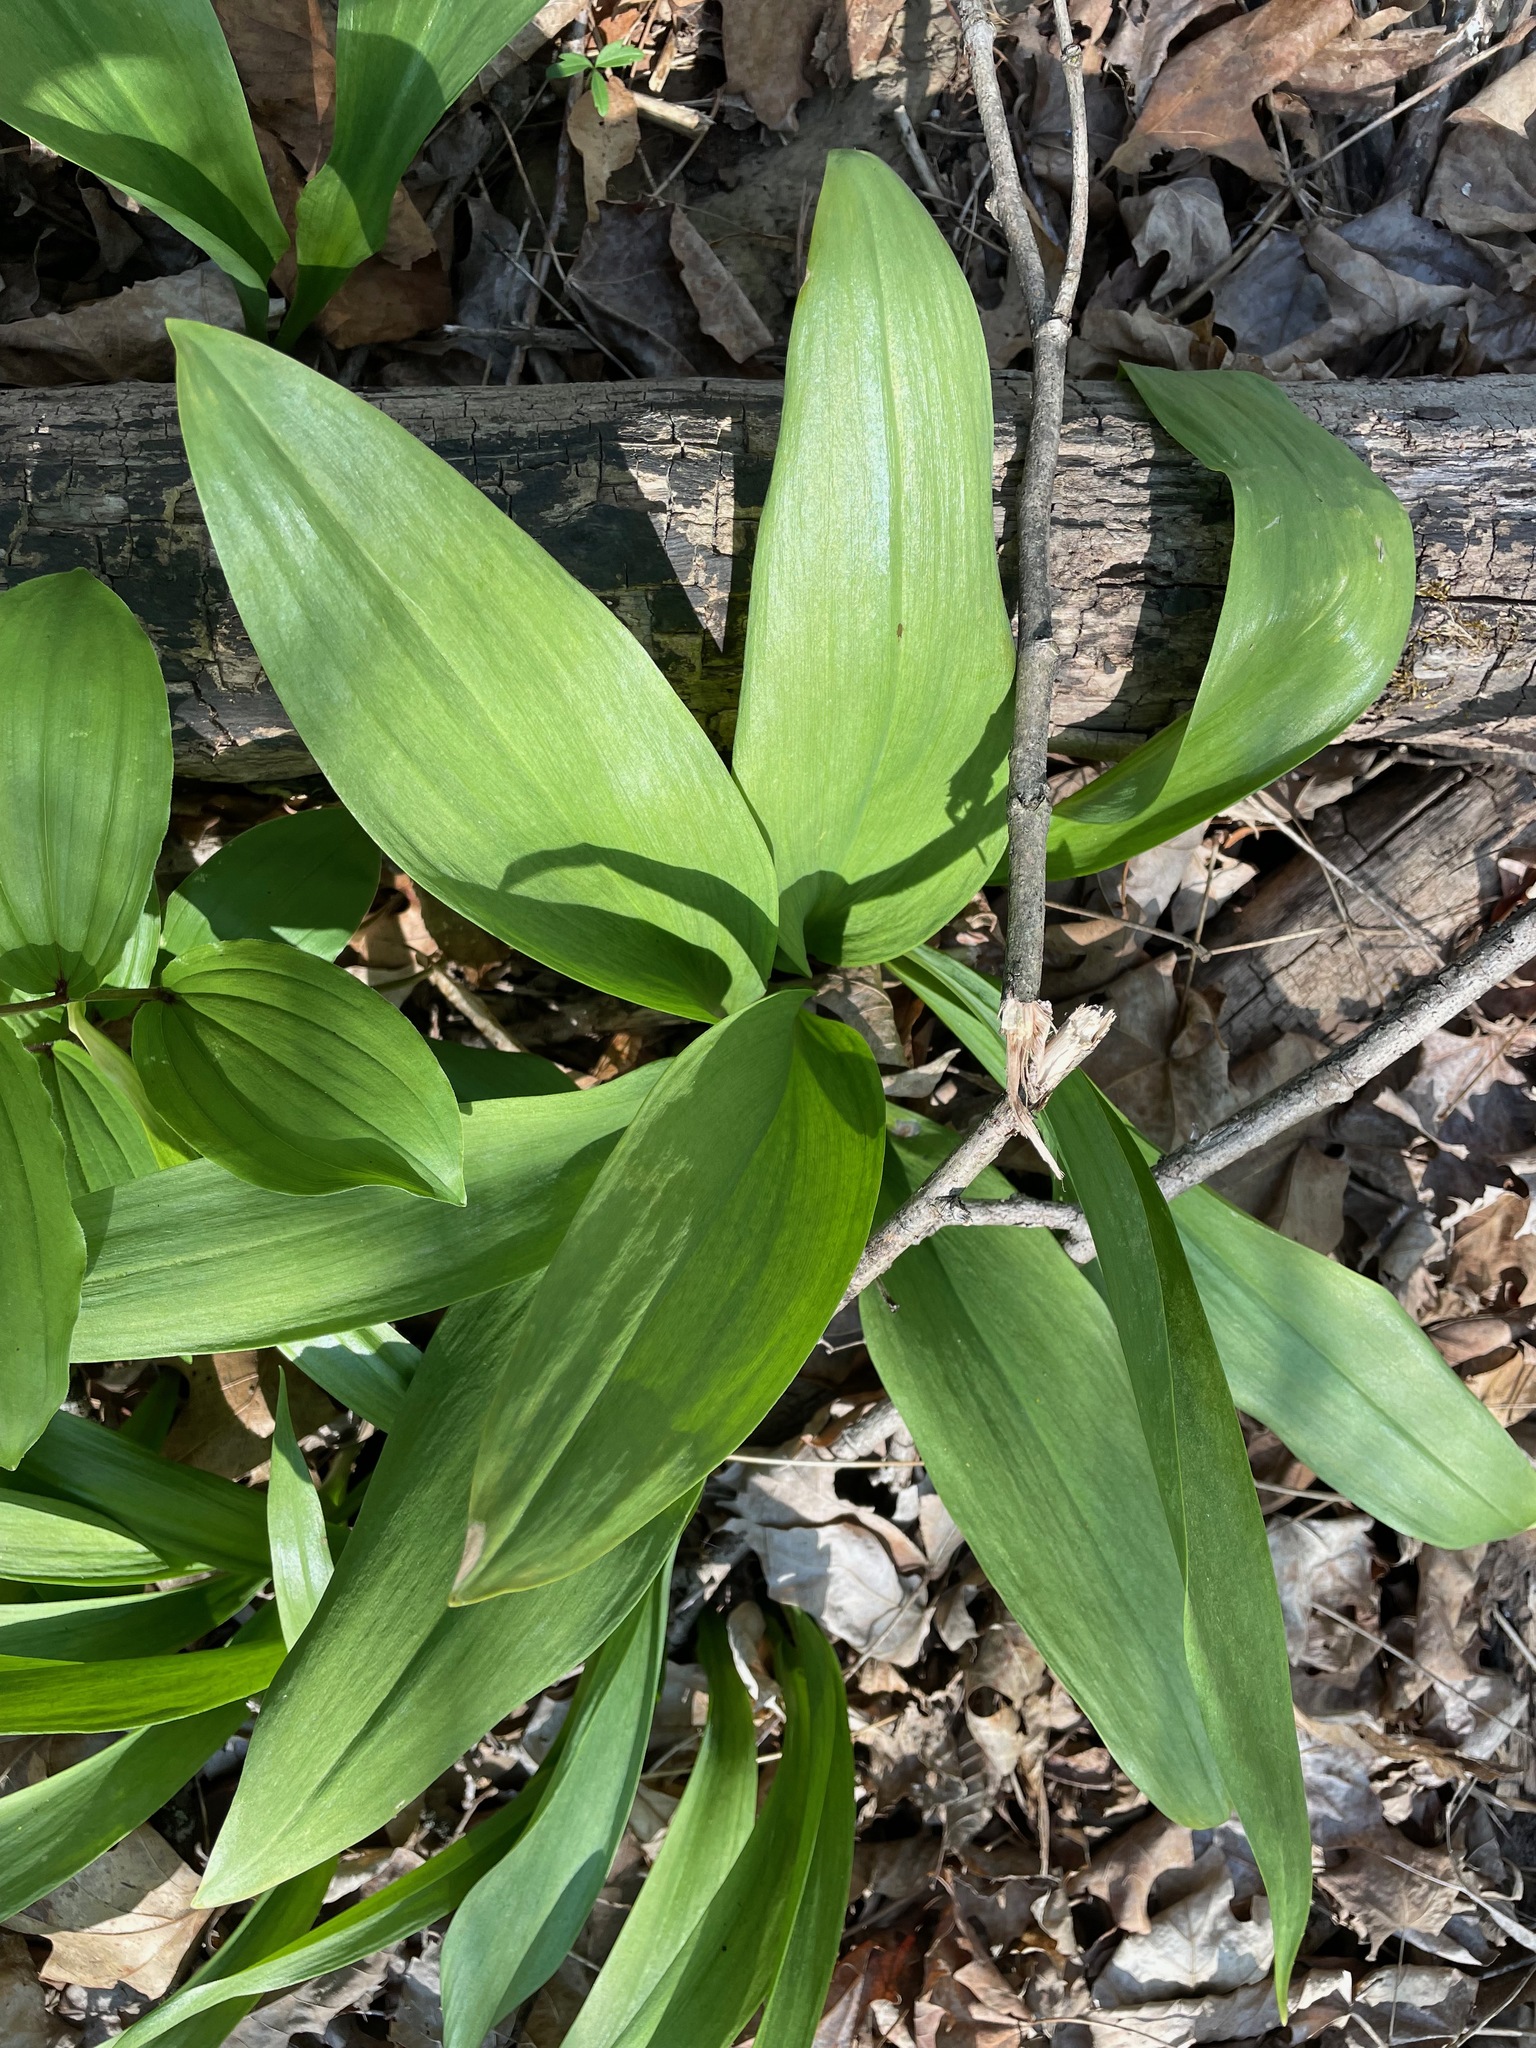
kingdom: Plantae
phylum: Tracheophyta
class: Liliopsida
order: Asparagales
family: Amaryllidaceae
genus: Allium
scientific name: Allium tricoccum
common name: Ramp
